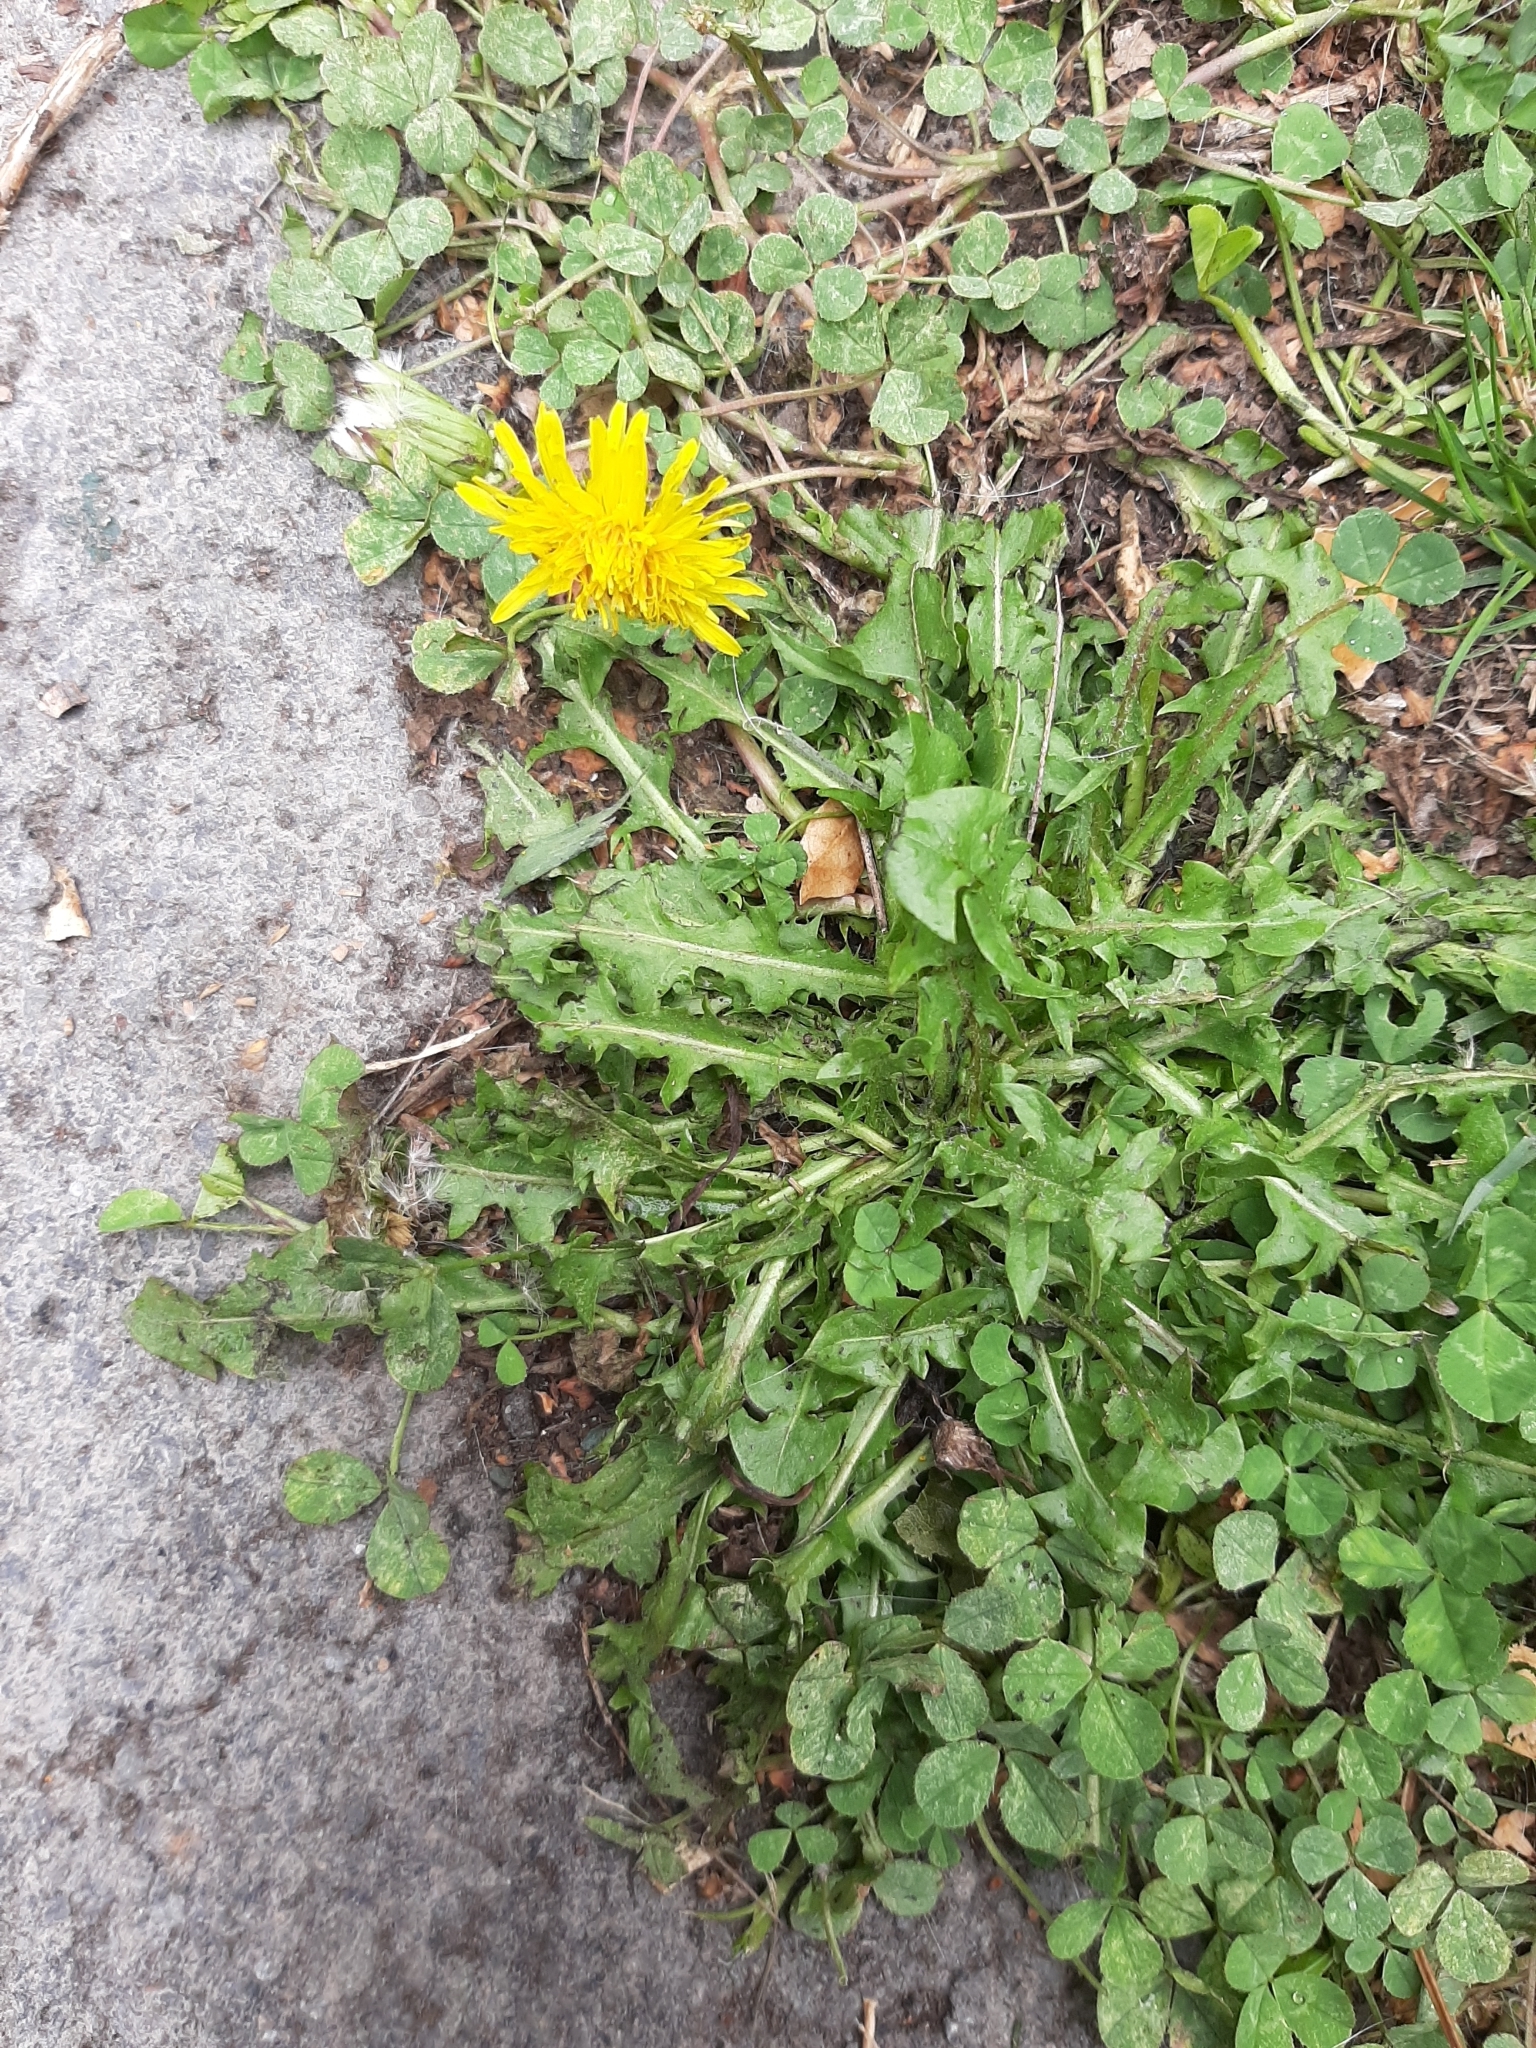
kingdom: Plantae
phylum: Tracheophyta
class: Magnoliopsida
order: Asterales
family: Asteraceae
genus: Taraxacum
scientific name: Taraxacum officinale
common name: Common dandelion
